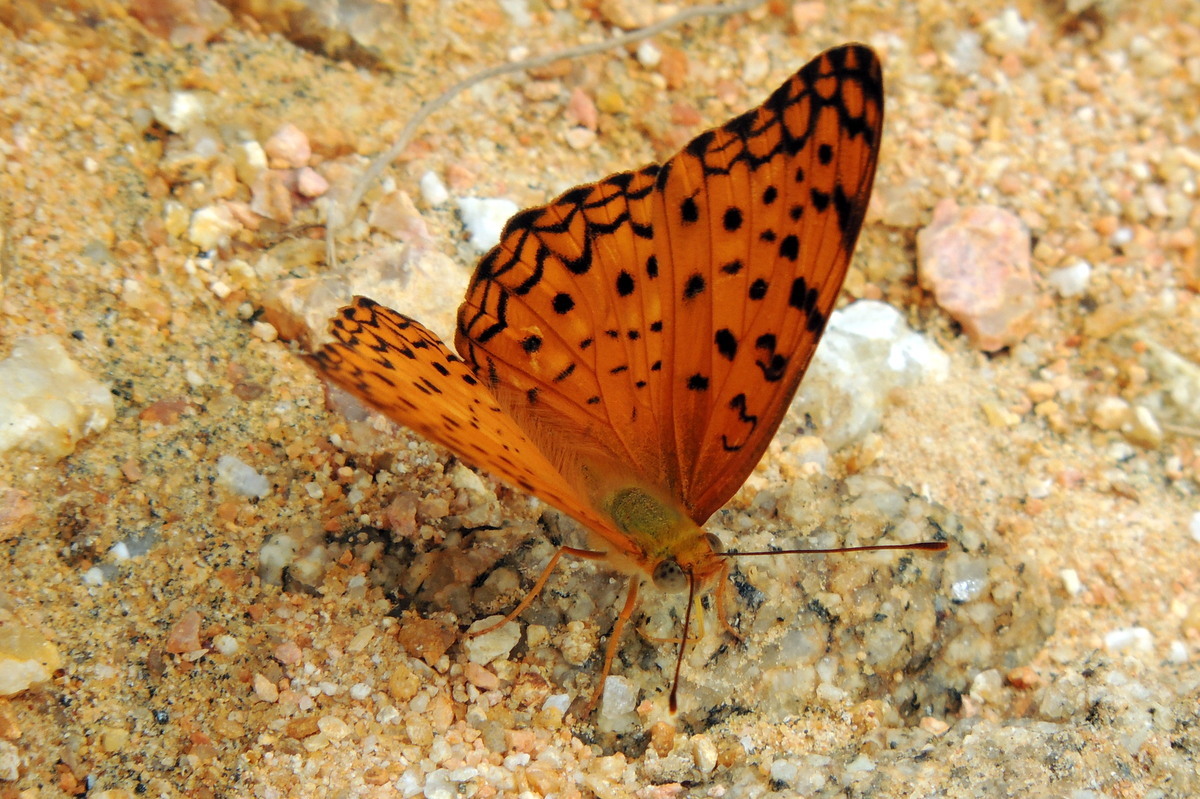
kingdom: Animalia
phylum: Arthropoda
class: Insecta
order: Lepidoptera
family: Nymphalidae
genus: Phalanta
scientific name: Phalanta phalantha
